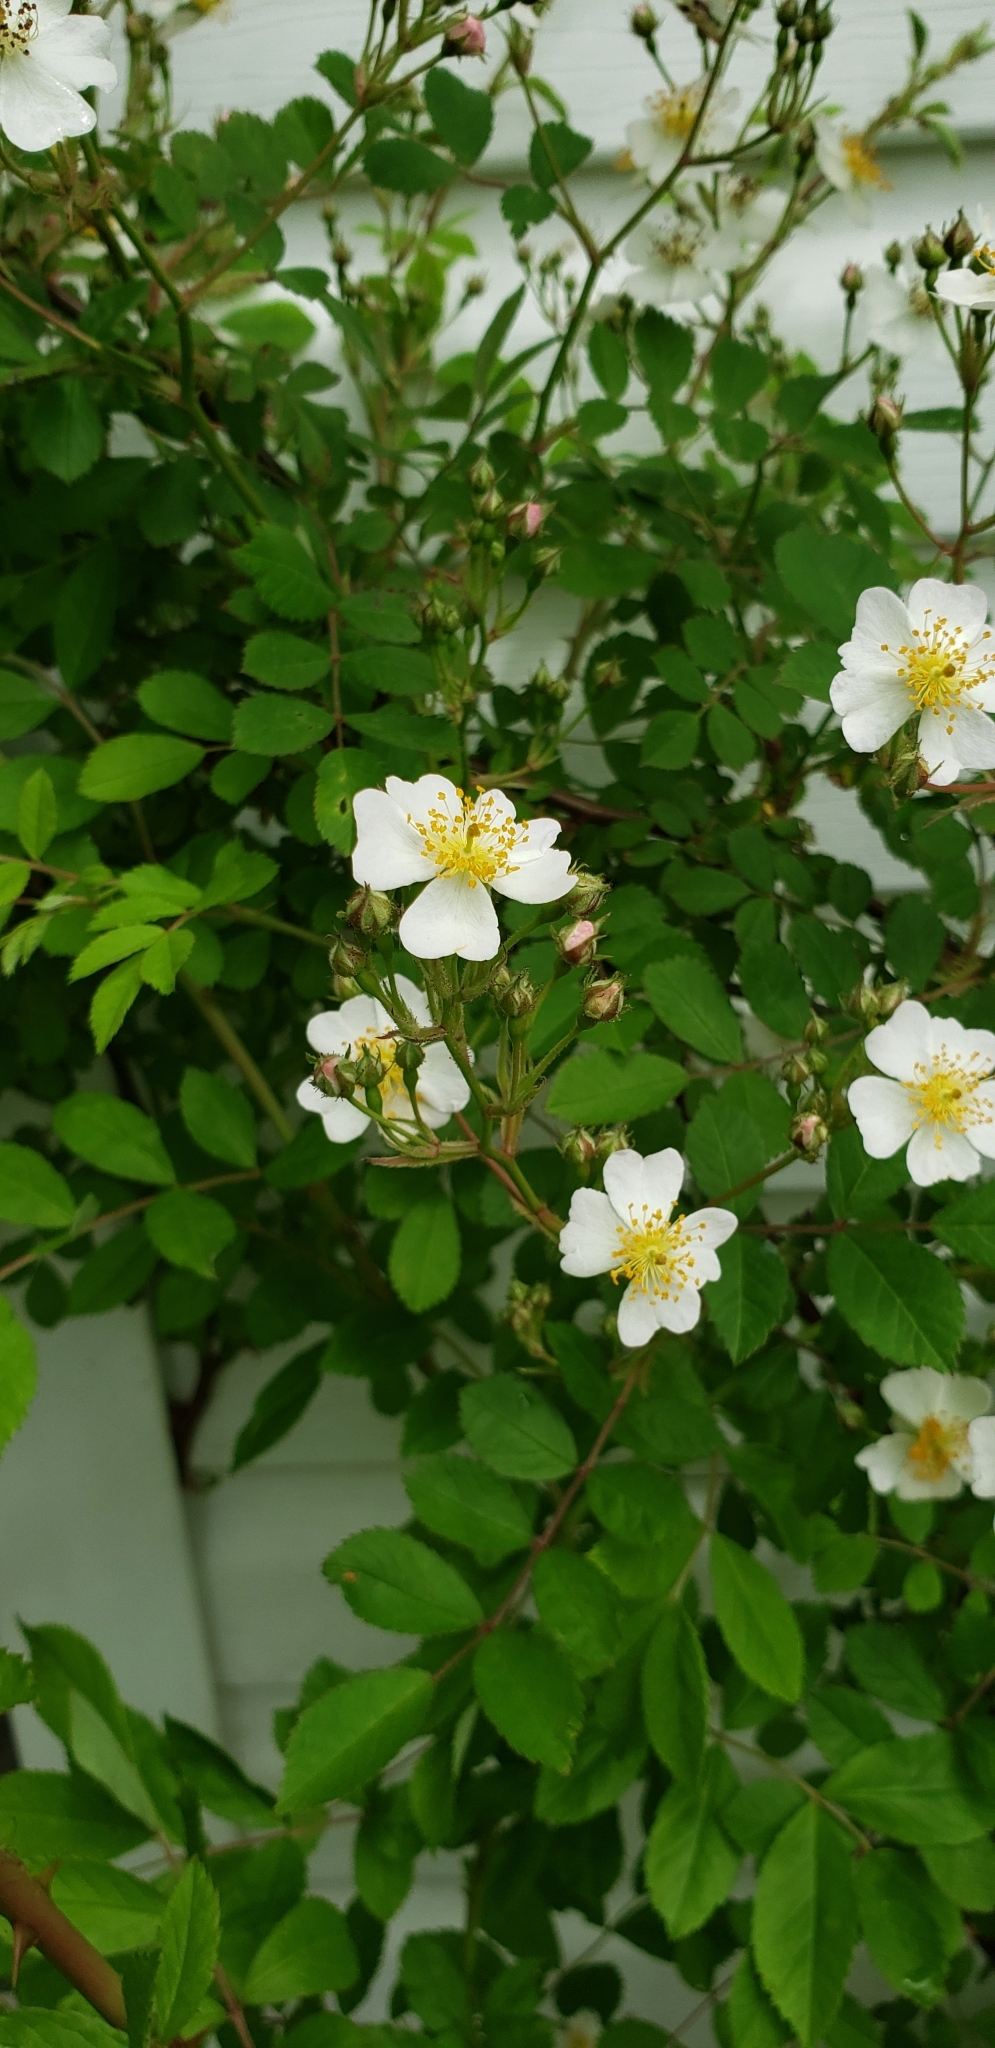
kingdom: Plantae
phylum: Tracheophyta
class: Magnoliopsida
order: Rosales
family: Rosaceae
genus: Rosa
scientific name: Rosa multiflora
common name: Multiflora rose
